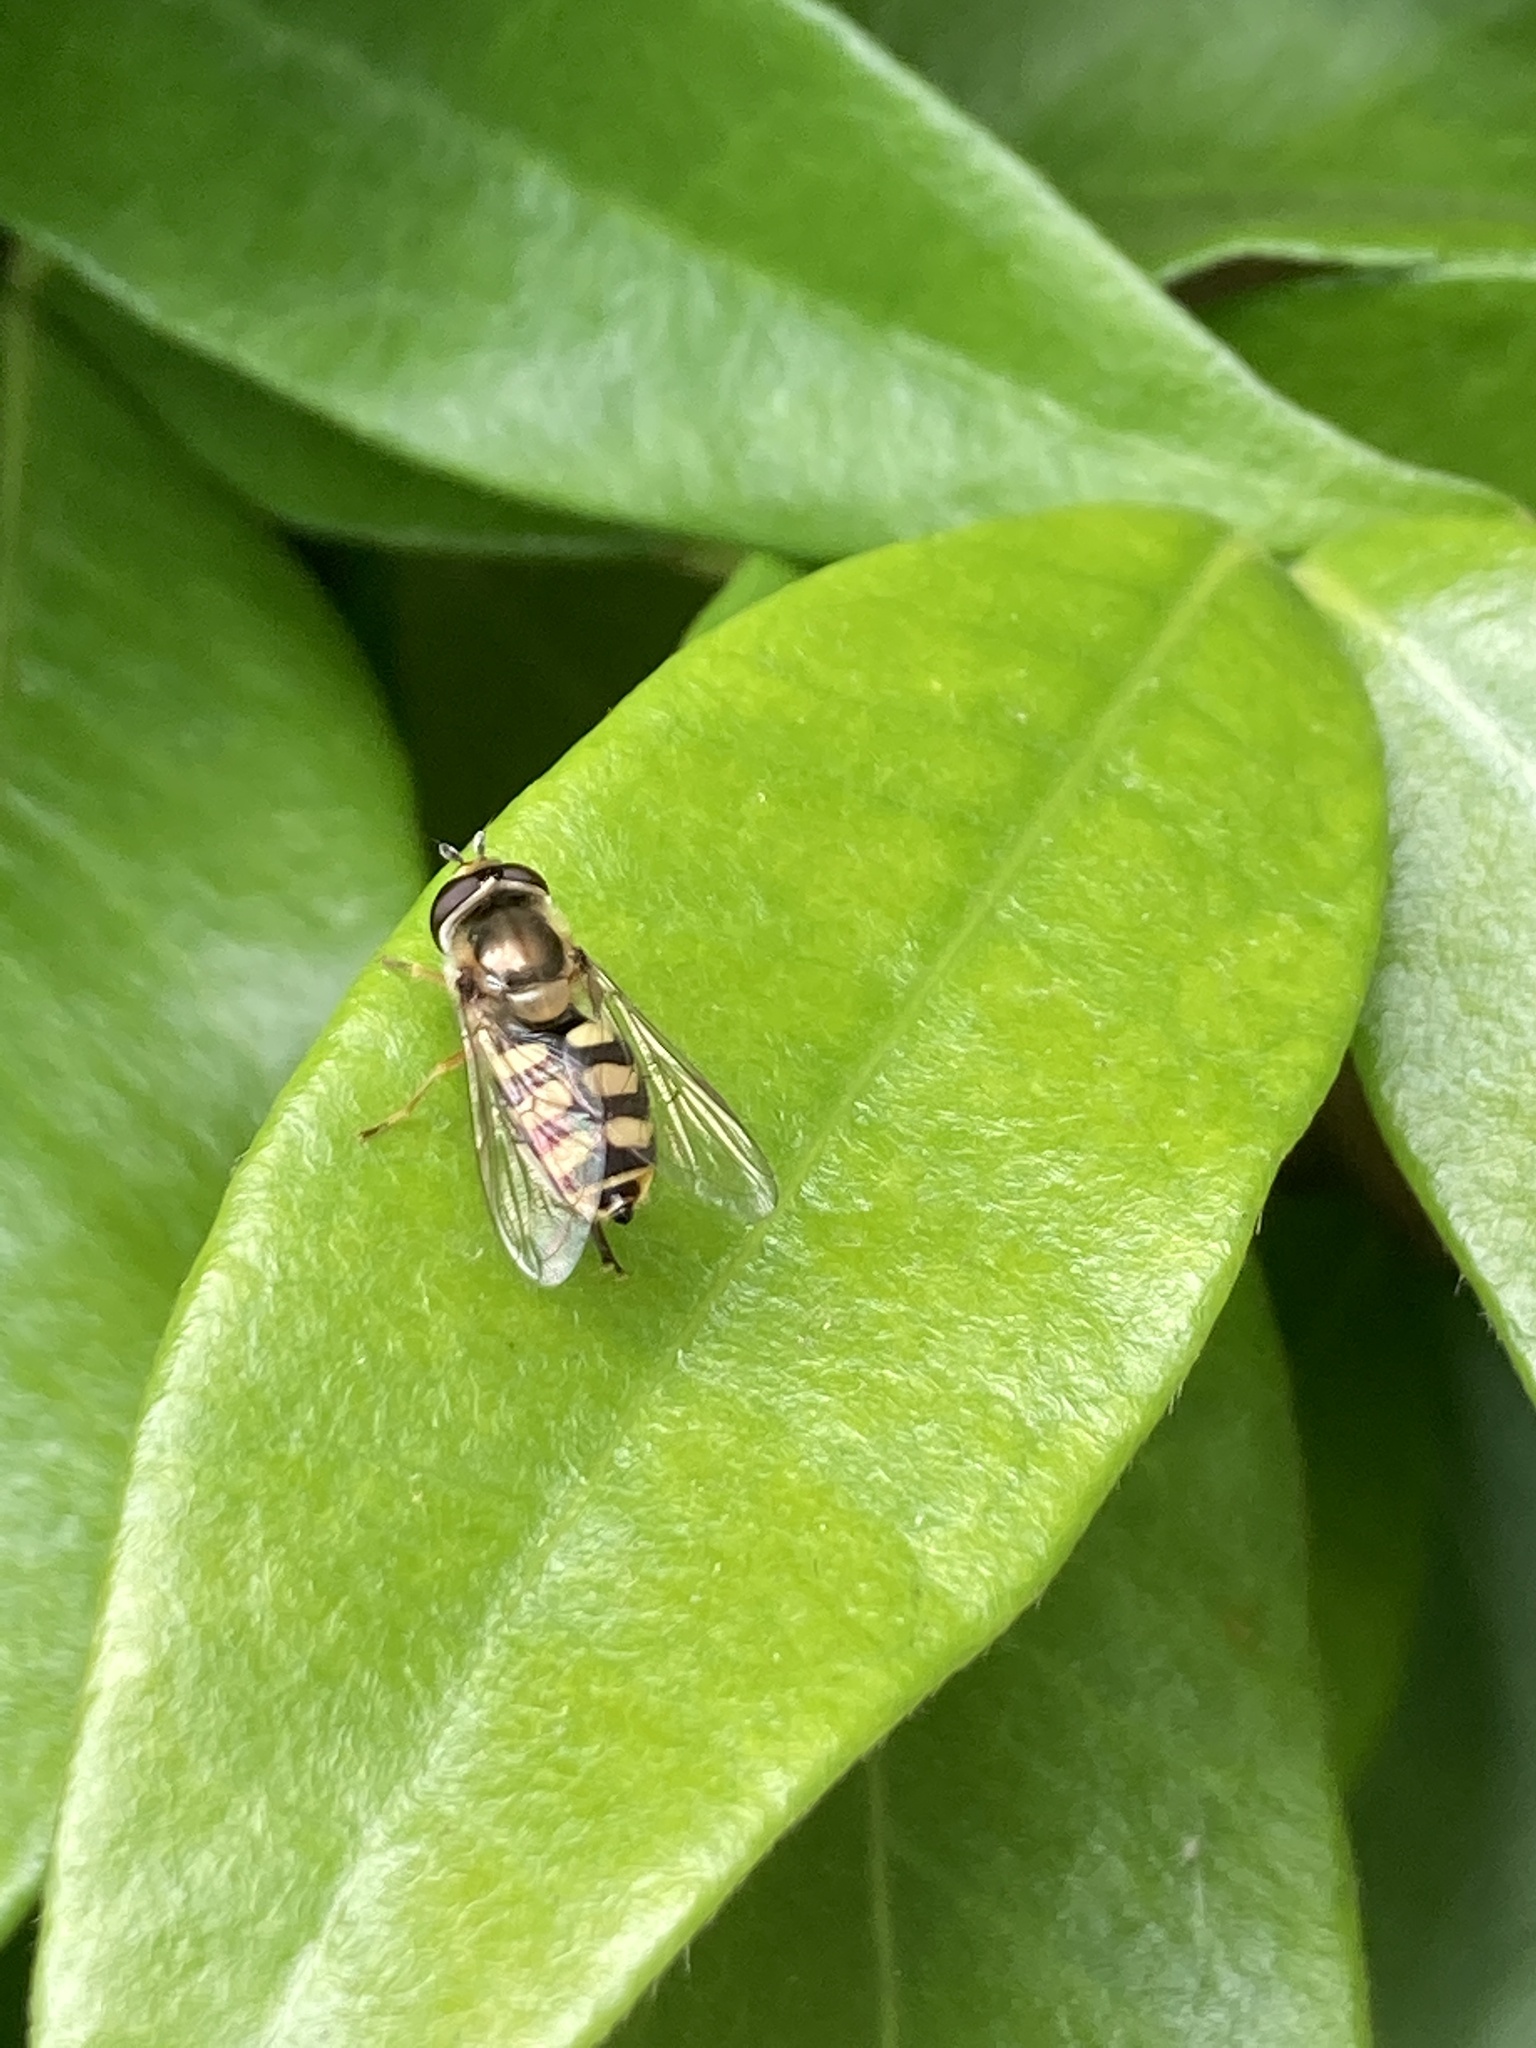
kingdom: Animalia
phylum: Arthropoda
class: Insecta
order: Diptera
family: Syrphidae
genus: Eupeodes
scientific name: Eupeodes corollae
